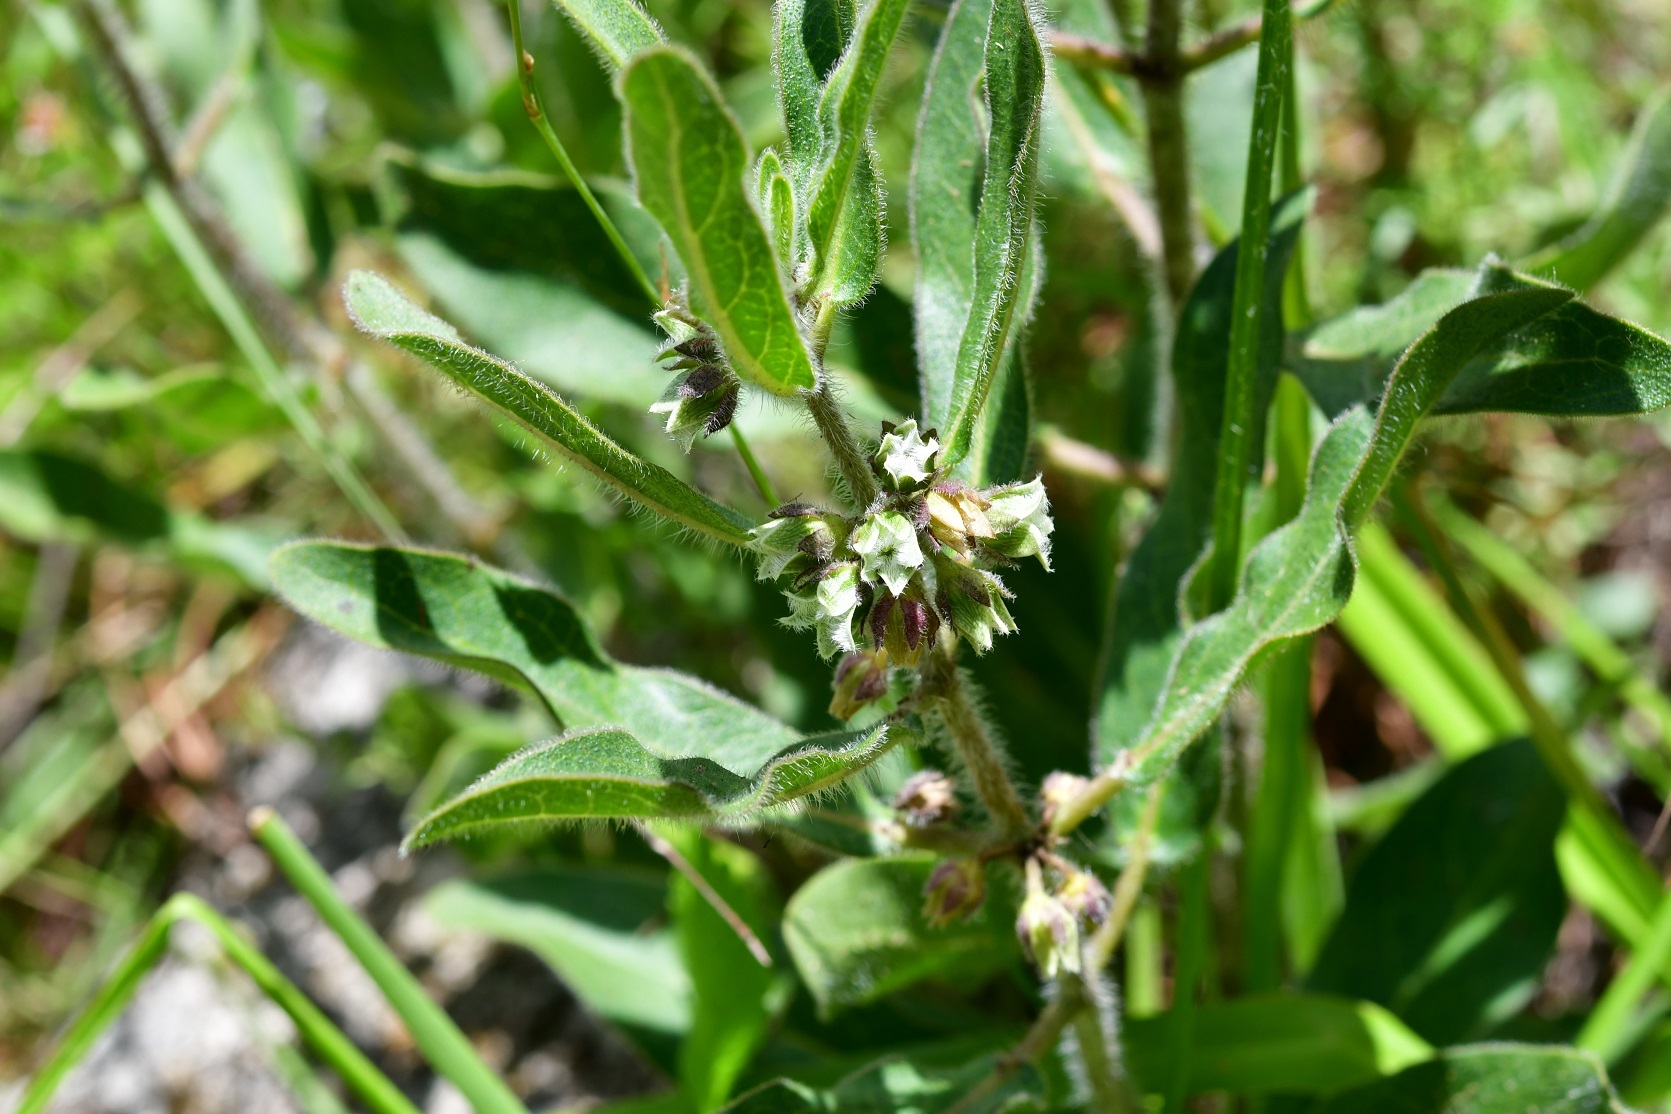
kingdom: Plantae
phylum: Tracheophyta
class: Magnoliopsida
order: Gentianales
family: Apocynaceae
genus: Pherotrichis
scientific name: Pherotrichis villosa
